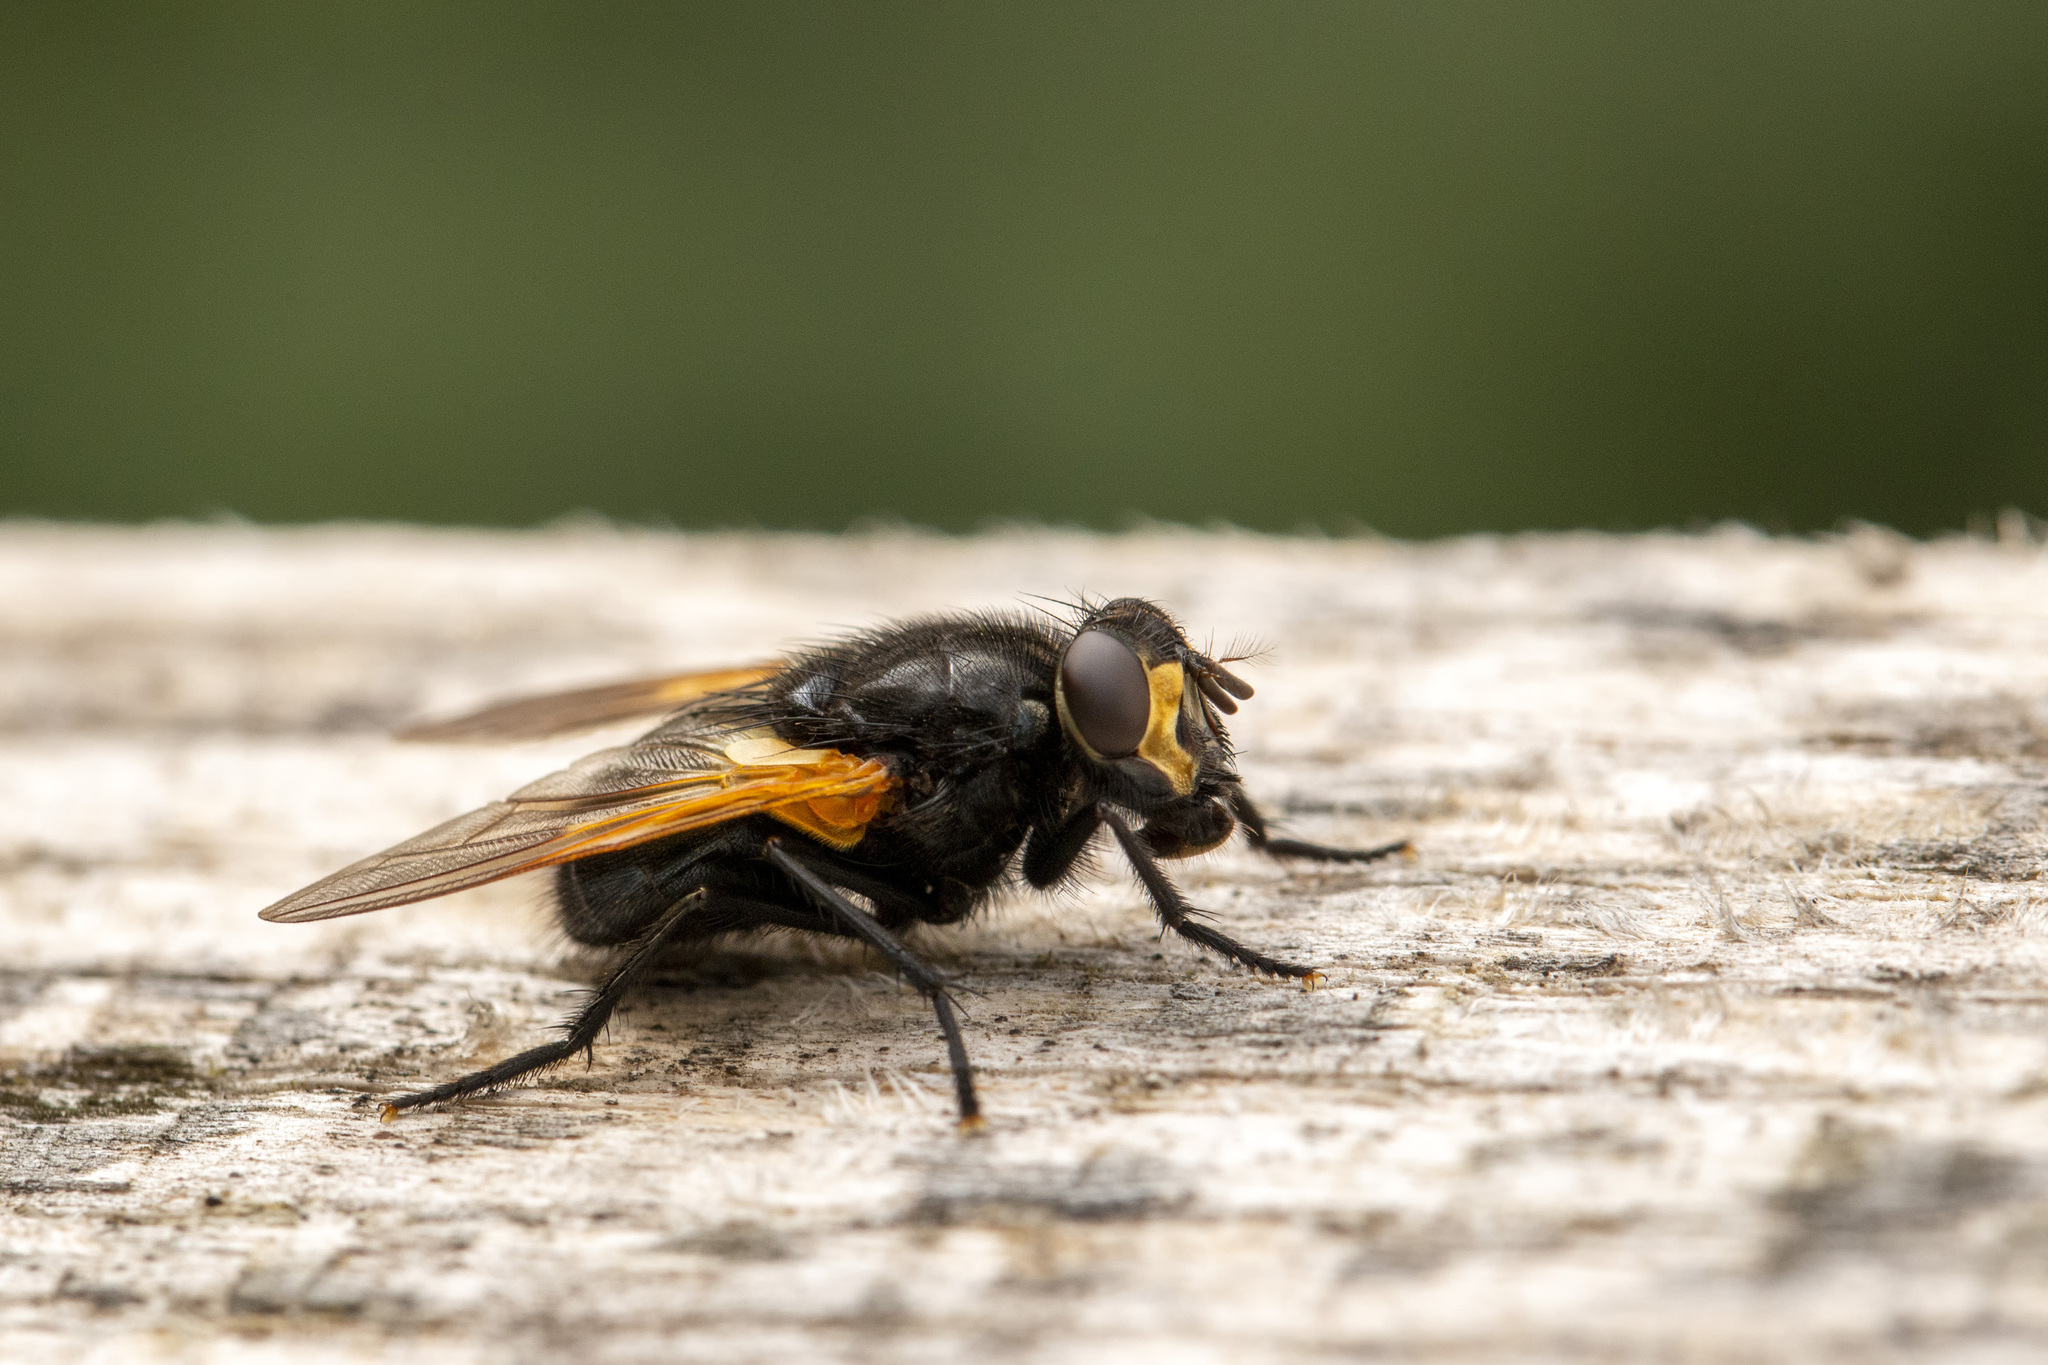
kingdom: Animalia
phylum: Arthropoda
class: Insecta
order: Diptera
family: Muscidae
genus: Mesembrina
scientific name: Mesembrina meridiana
